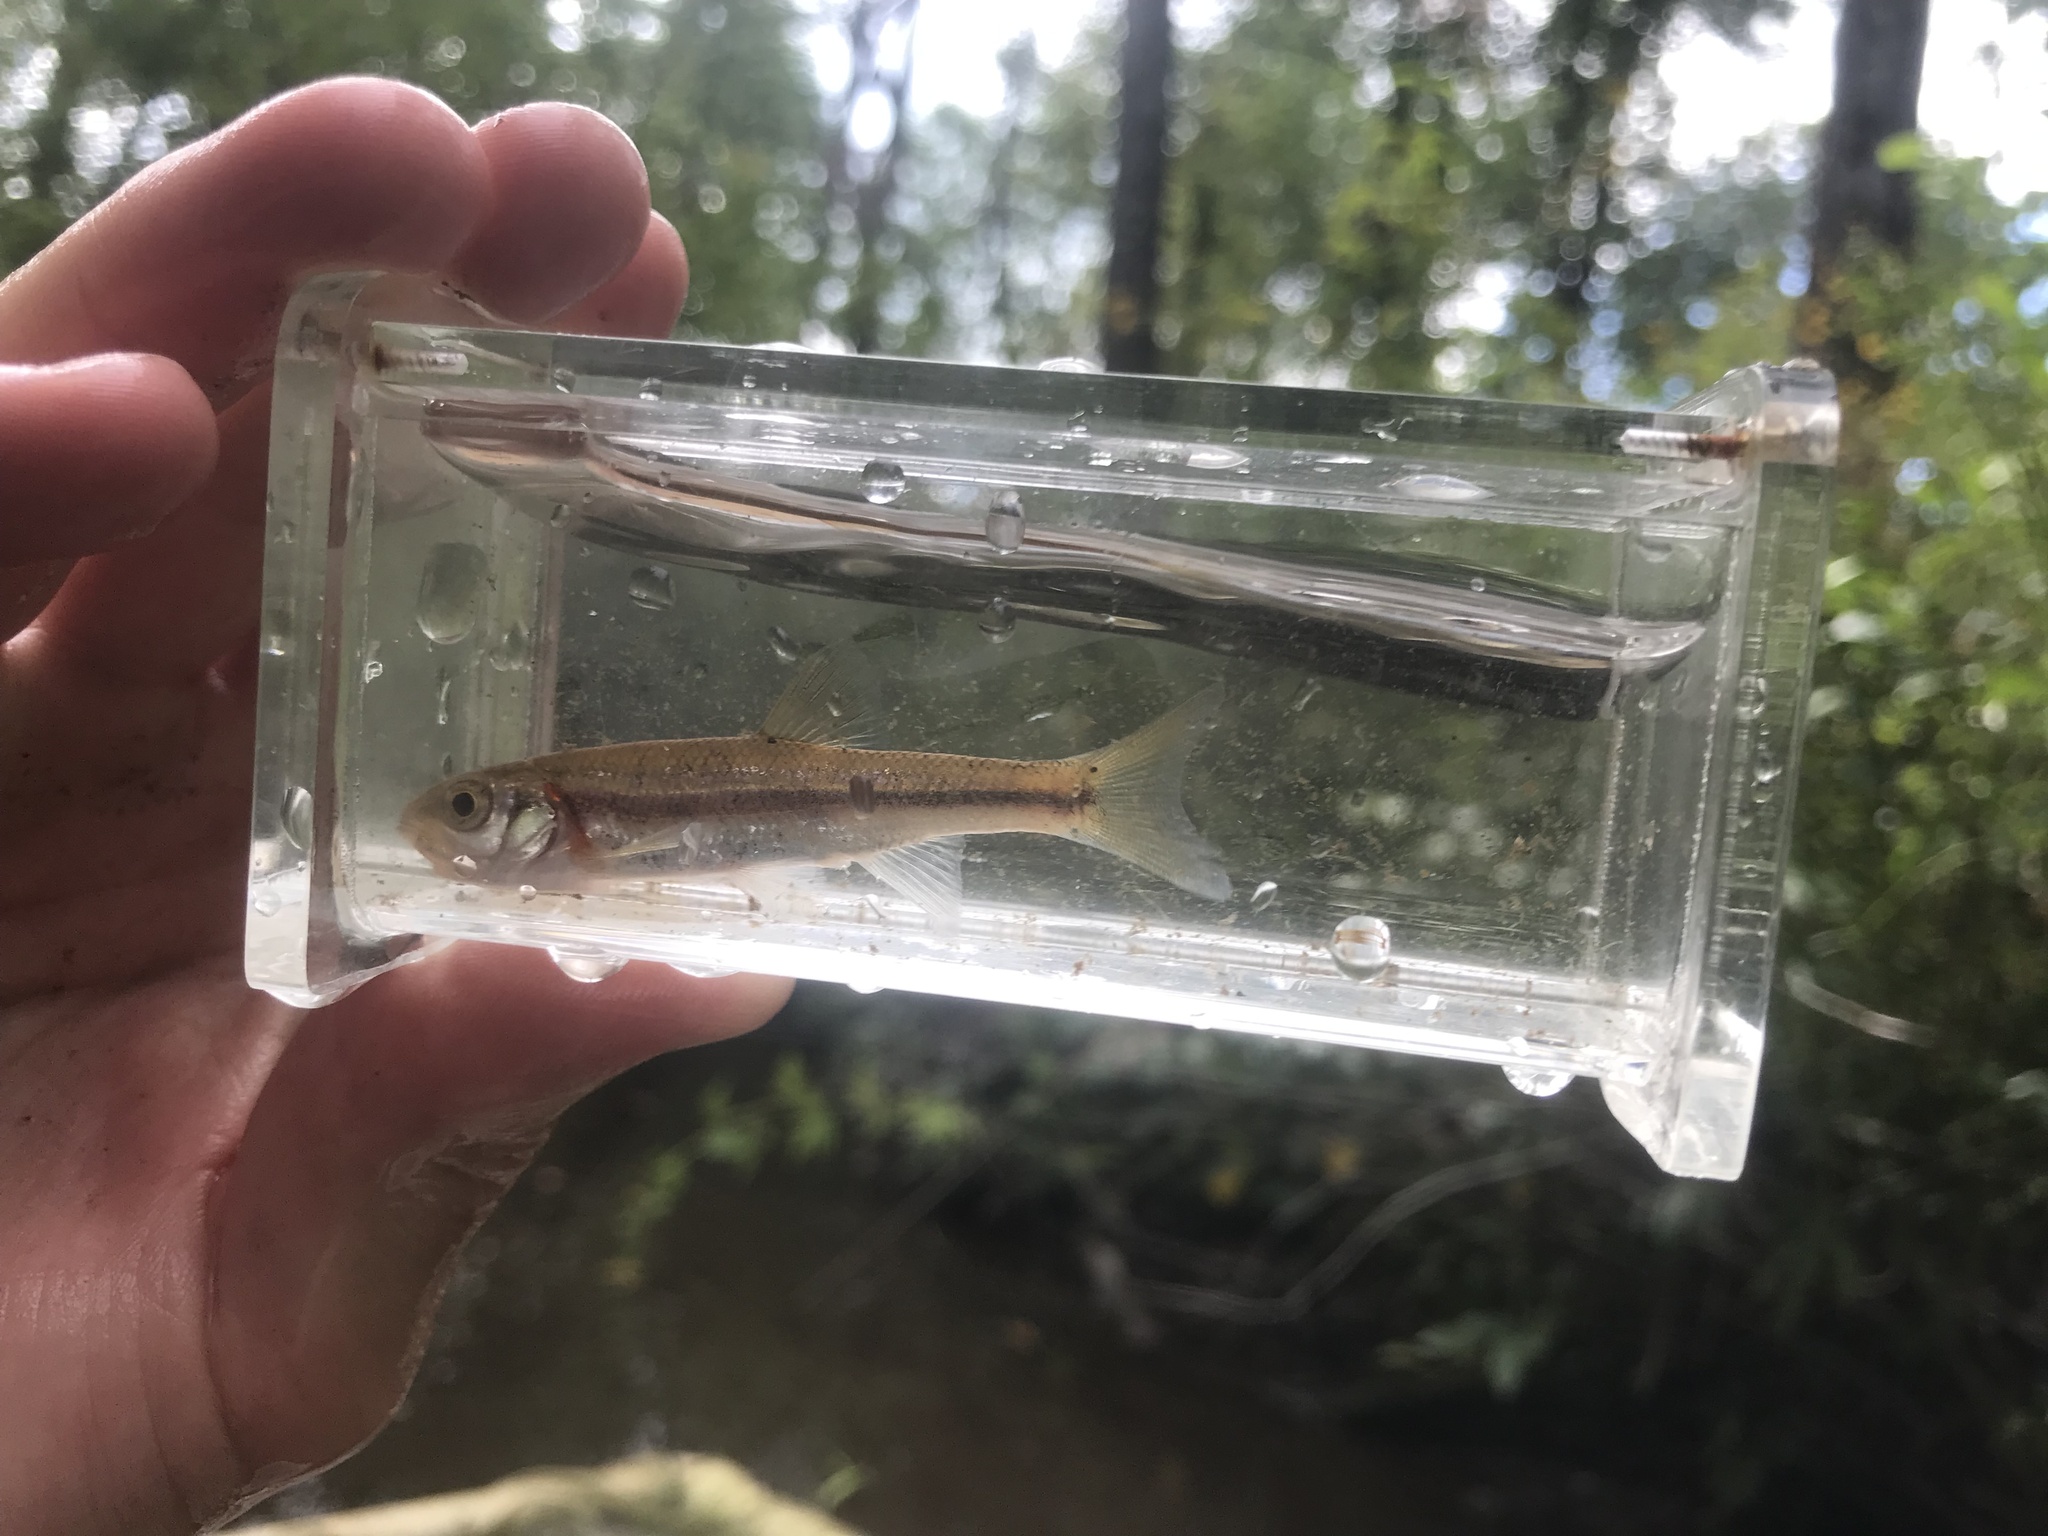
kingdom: Animalia
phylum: Chordata
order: Cypriniformes
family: Cyprinidae
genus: Clinostomus
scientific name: Clinostomus funduloides
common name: Rosyside dace
